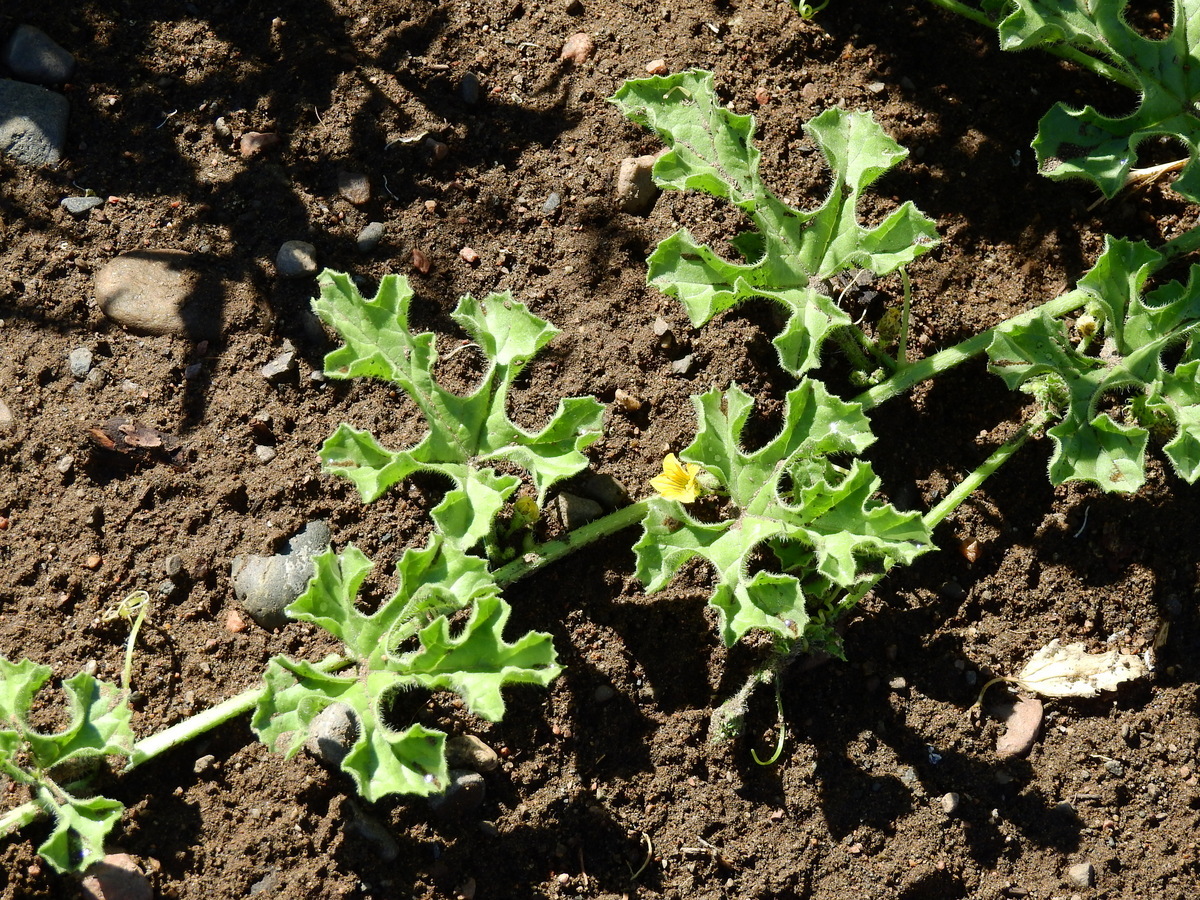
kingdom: Plantae
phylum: Tracheophyta
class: Magnoliopsida
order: Cucurbitales
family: Cucurbitaceae
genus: Cucumis
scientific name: Cucumis anguria
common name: West indian gherkin
